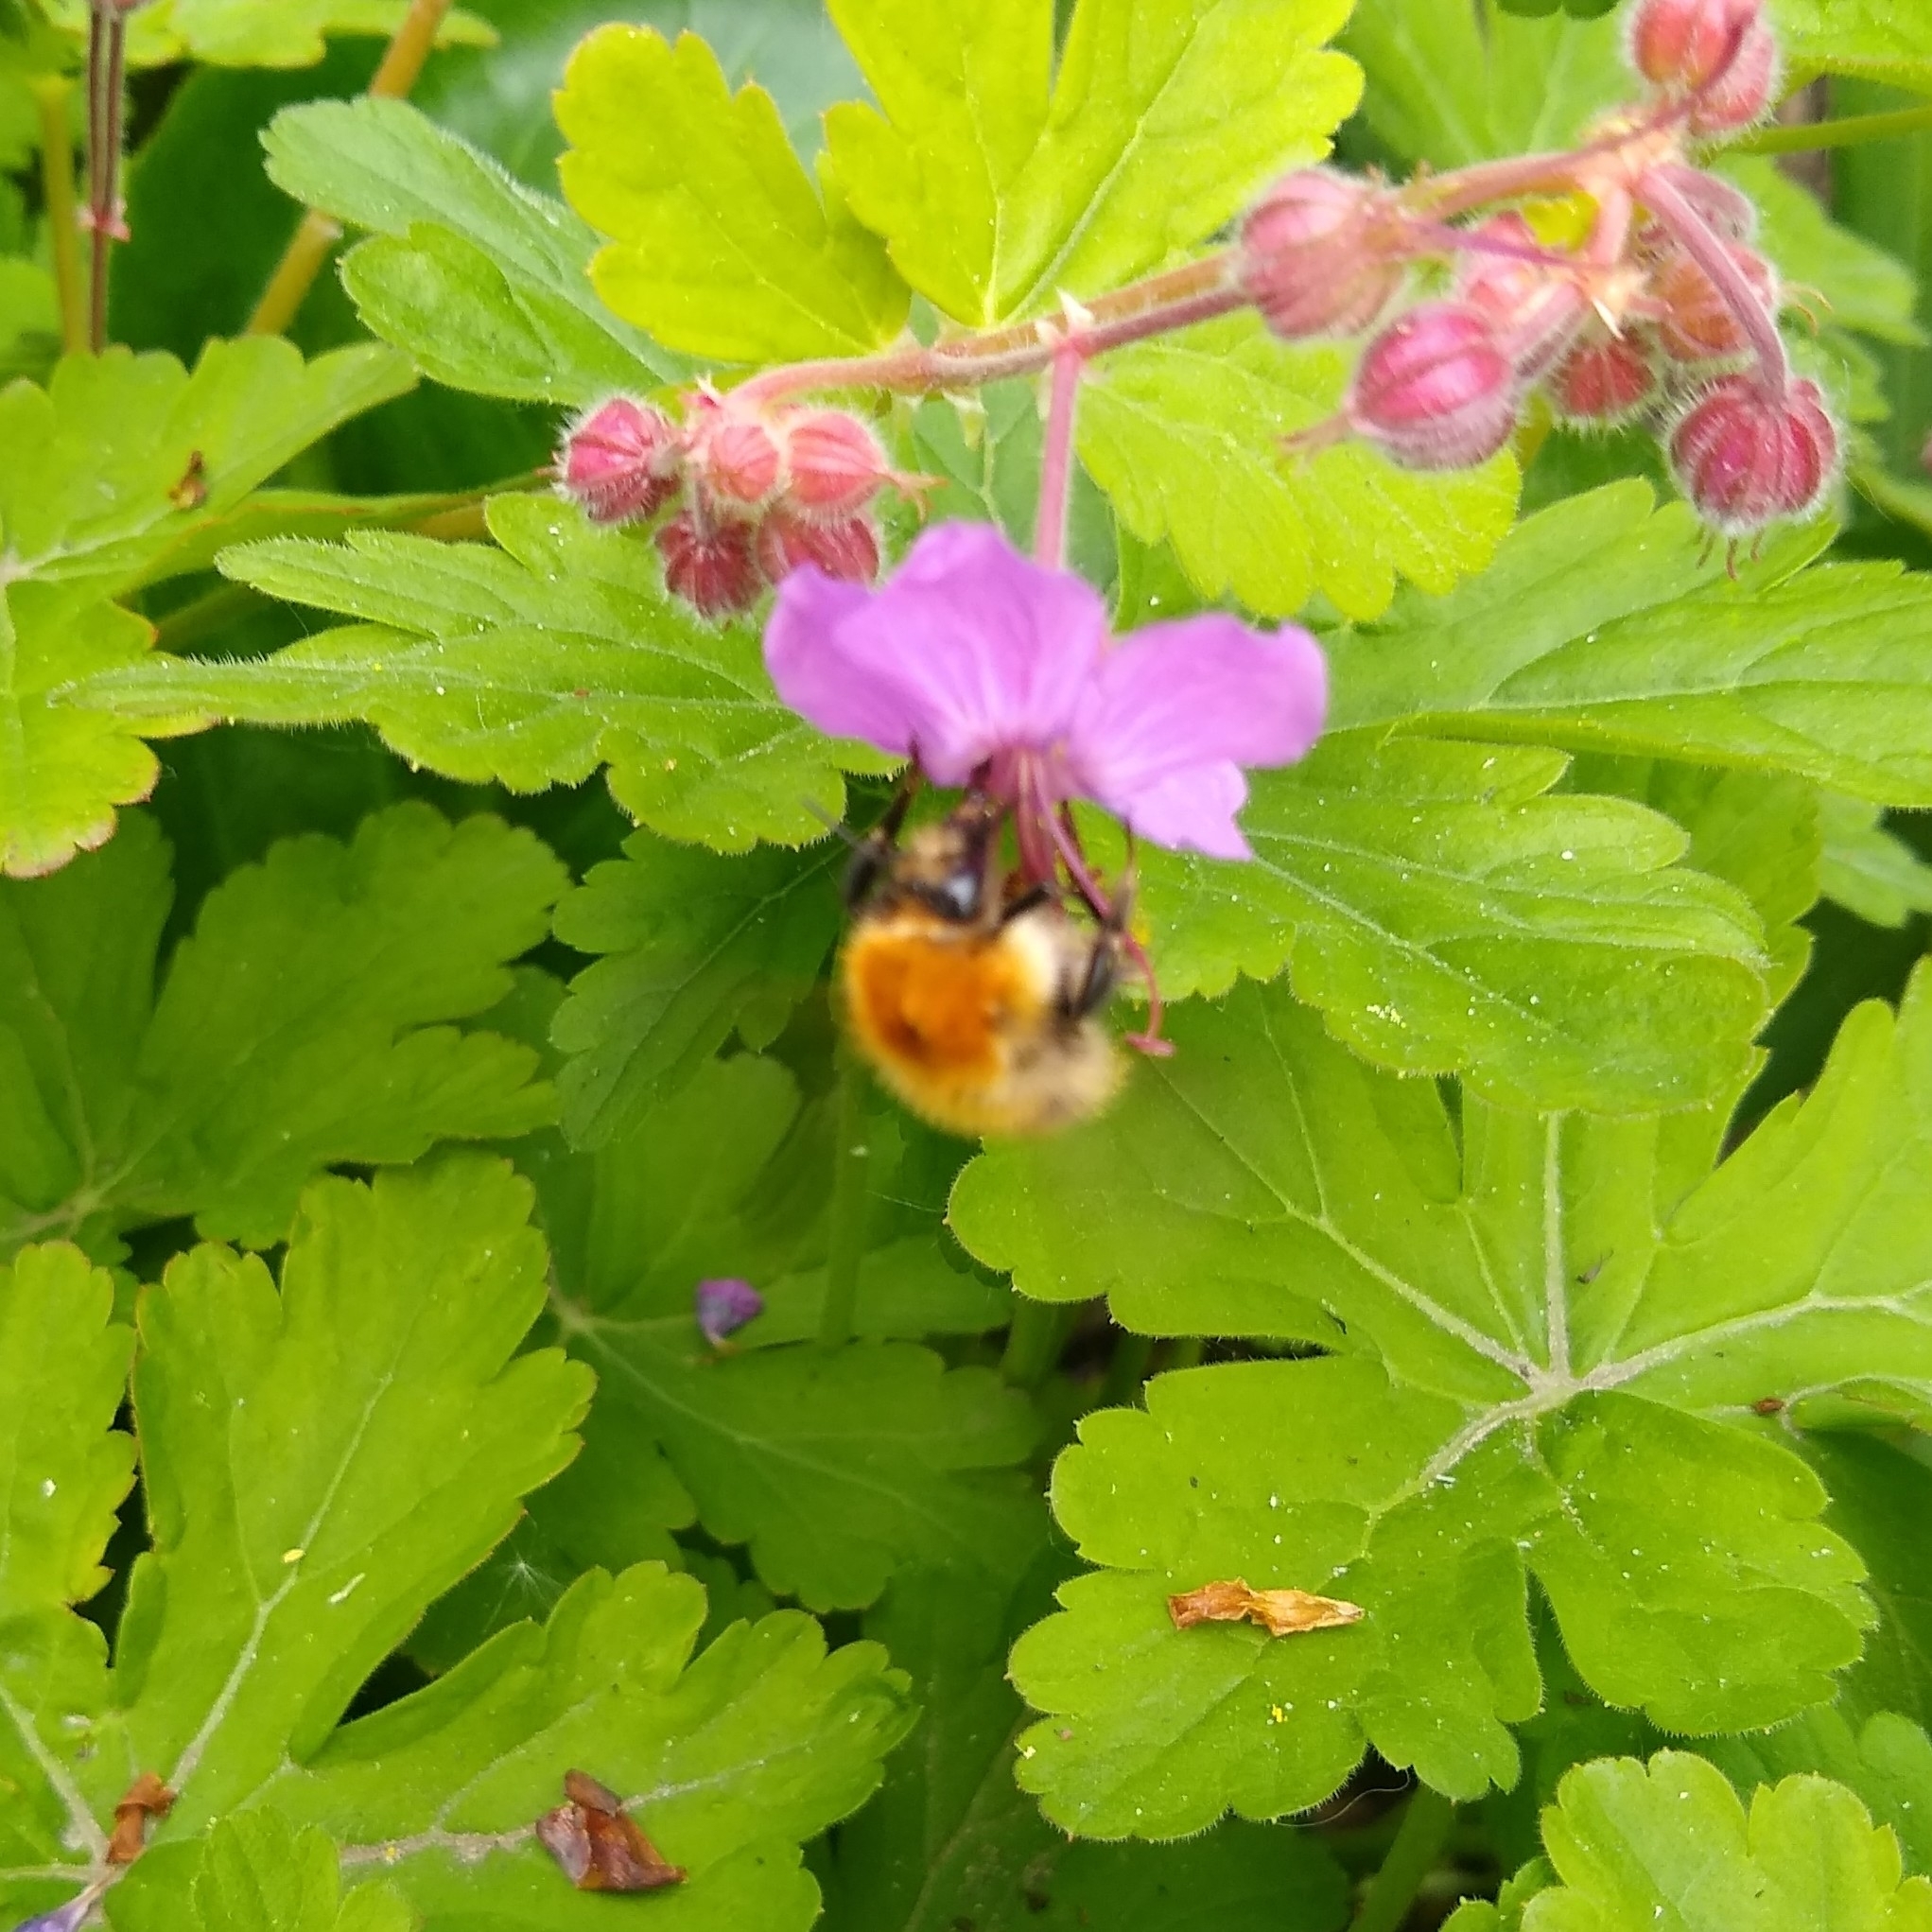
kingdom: Animalia
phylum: Arthropoda
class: Insecta
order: Hymenoptera
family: Apidae
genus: Bombus
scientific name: Bombus pascuorum
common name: Common carder bee
